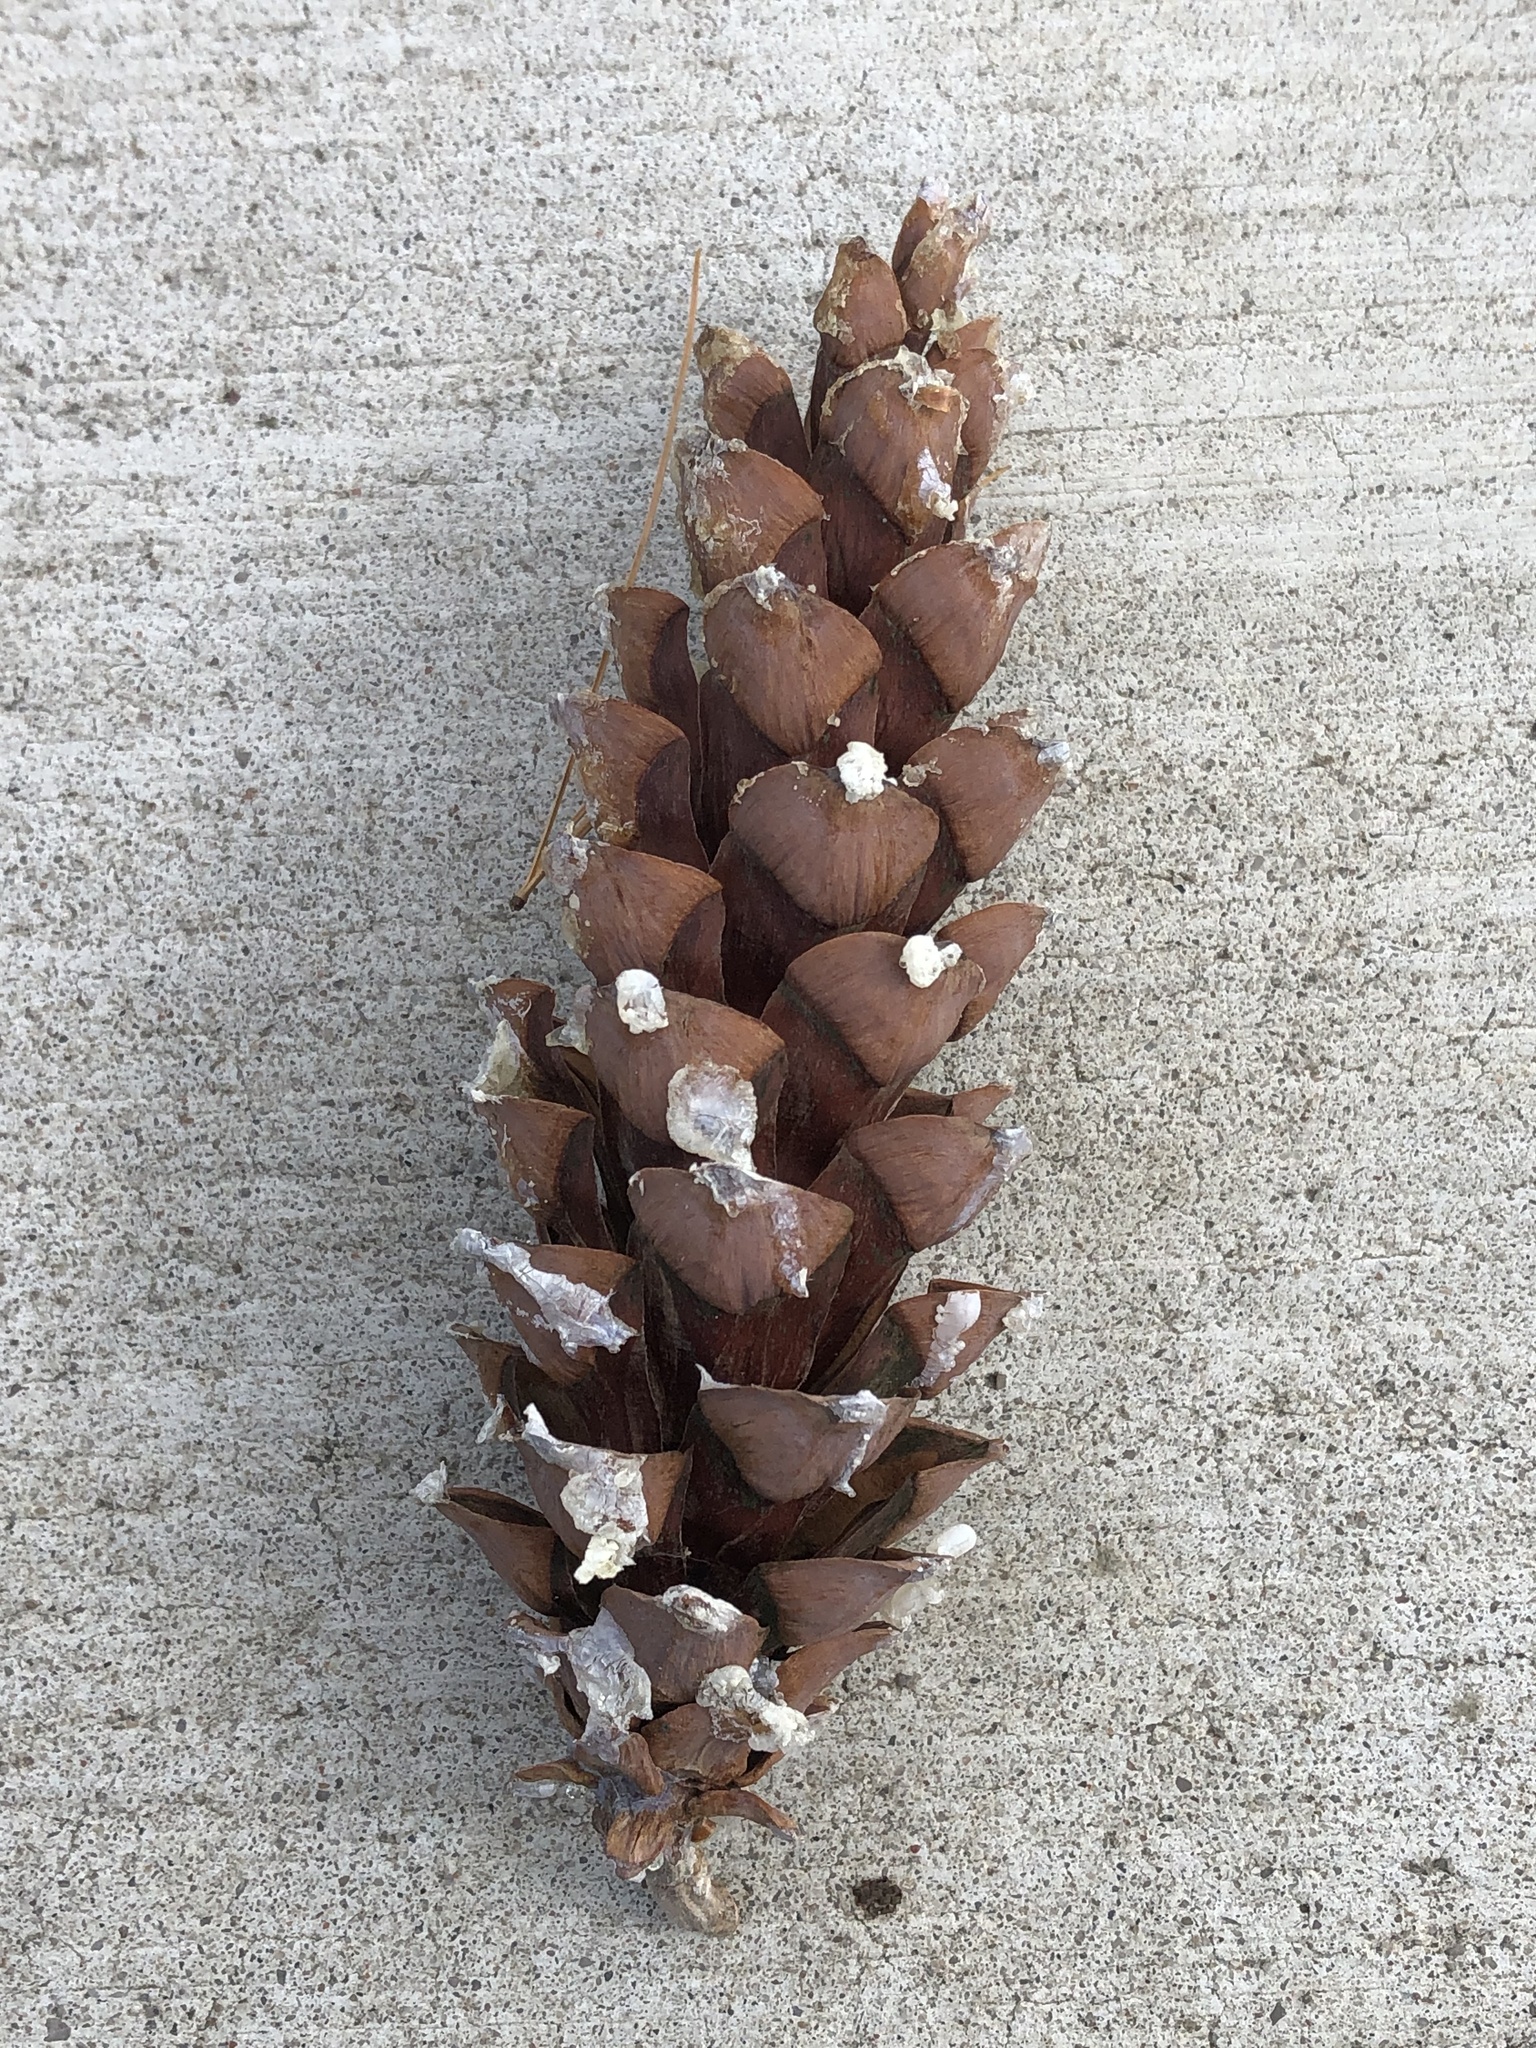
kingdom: Plantae
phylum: Tracheophyta
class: Pinopsida
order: Pinales
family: Pinaceae
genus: Pinus
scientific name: Pinus strobus
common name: Weymouth pine
